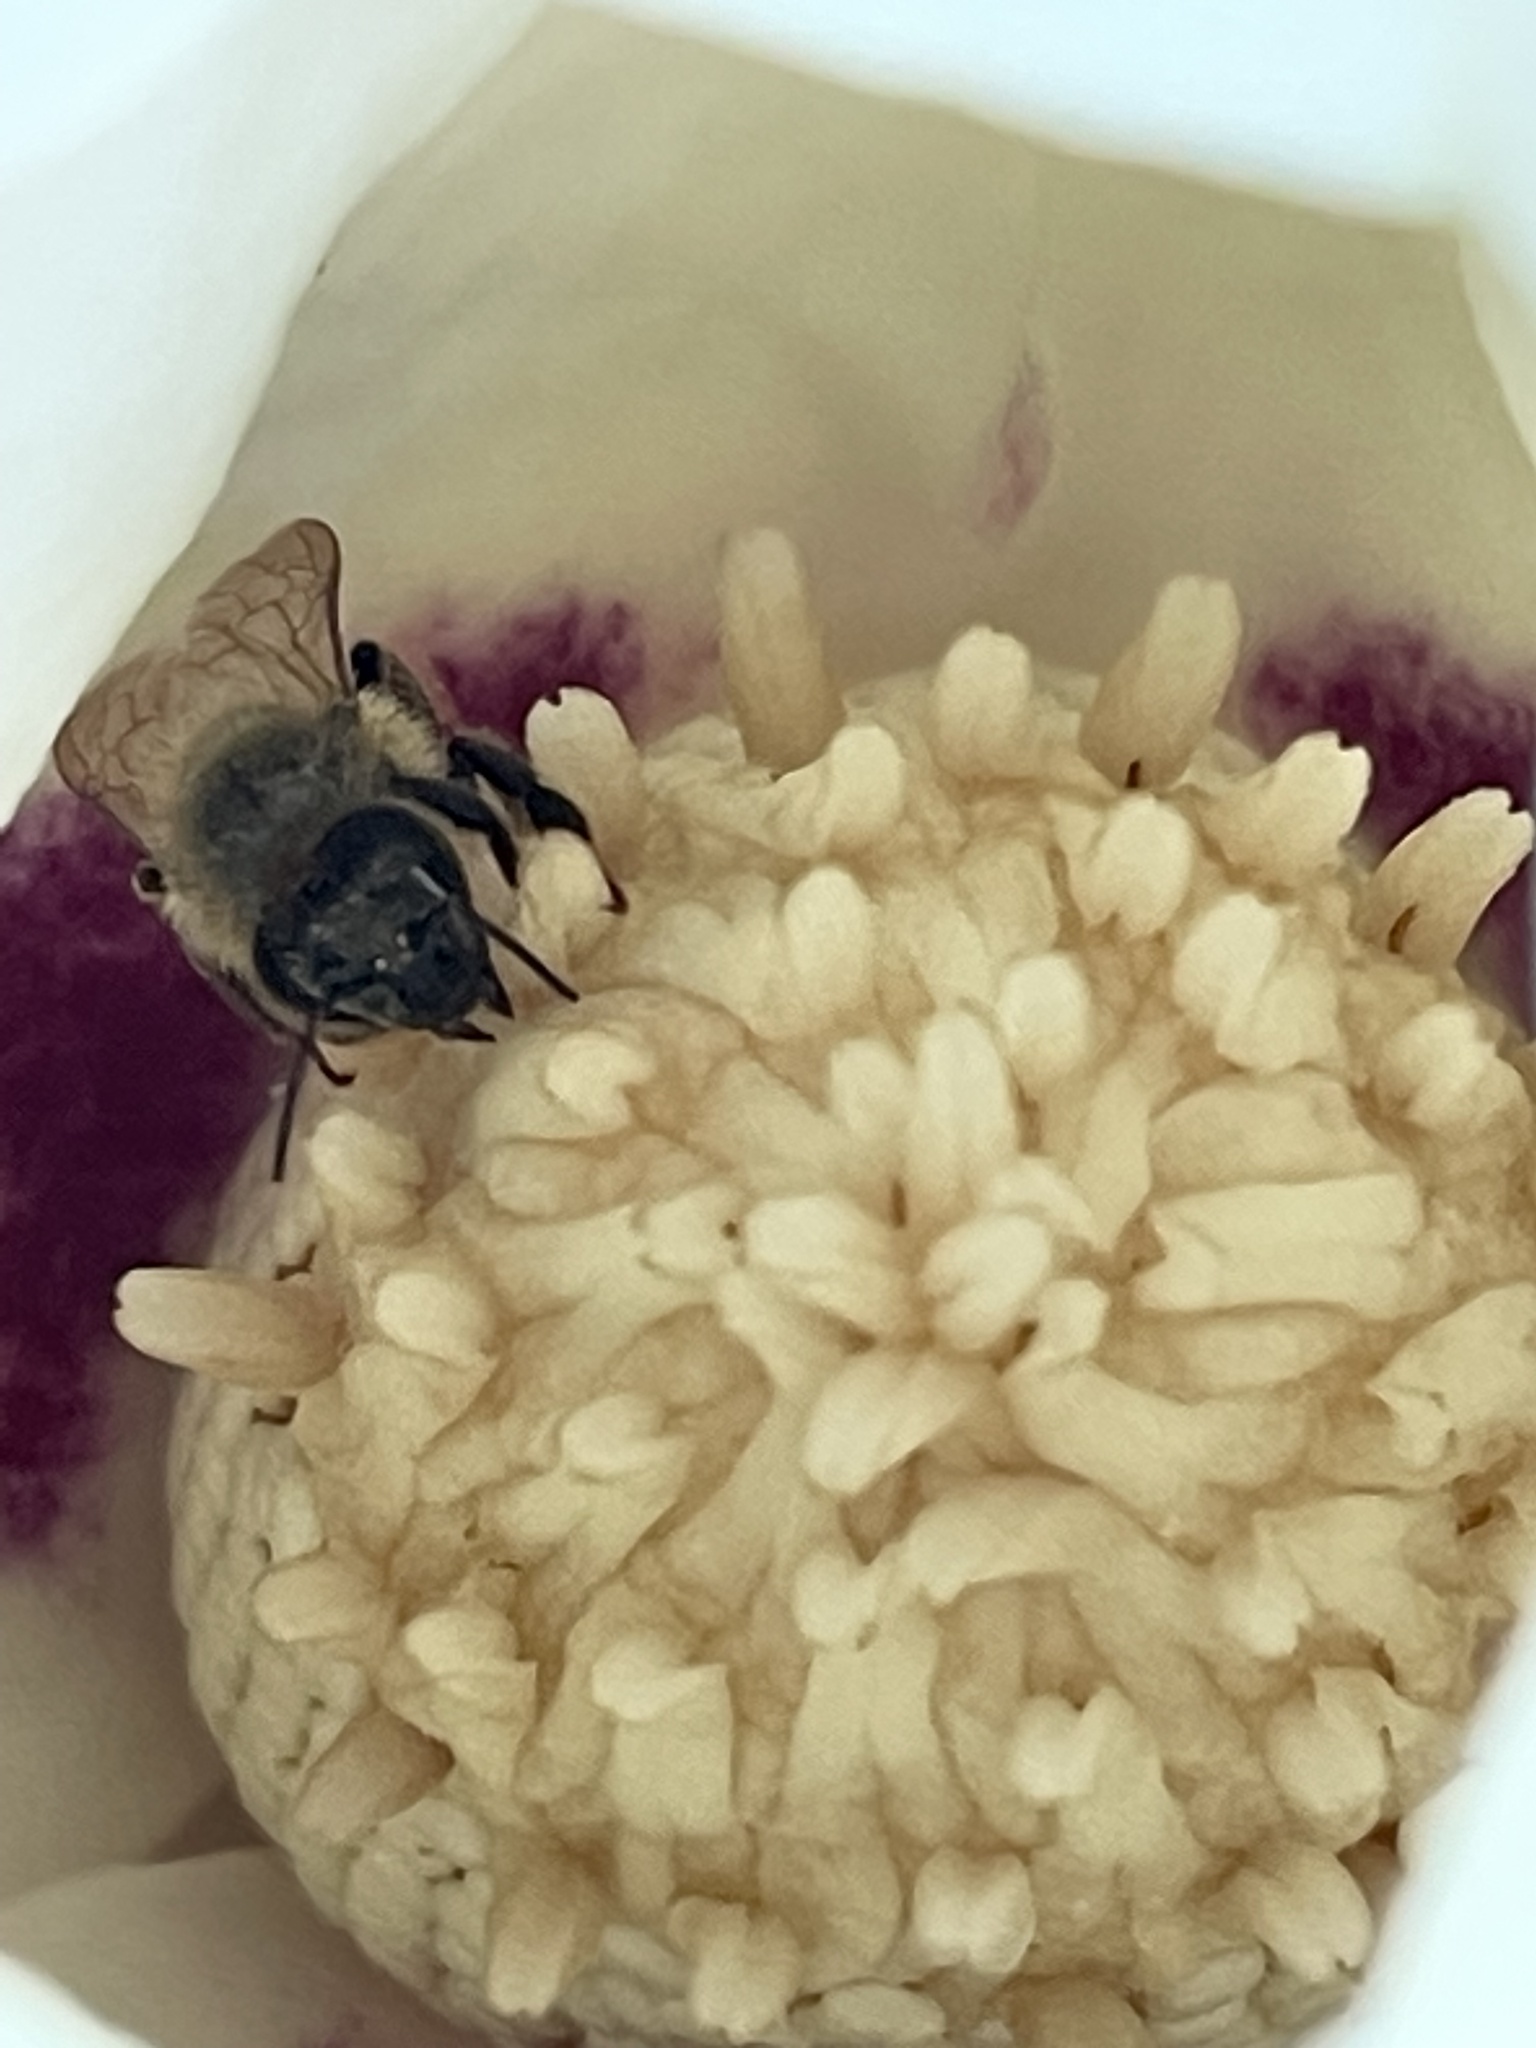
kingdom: Animalia
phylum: Arthropoda
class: Insecta
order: Hymenoptera
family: Apidae
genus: Apis
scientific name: Apis mellifera
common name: Honey bee
